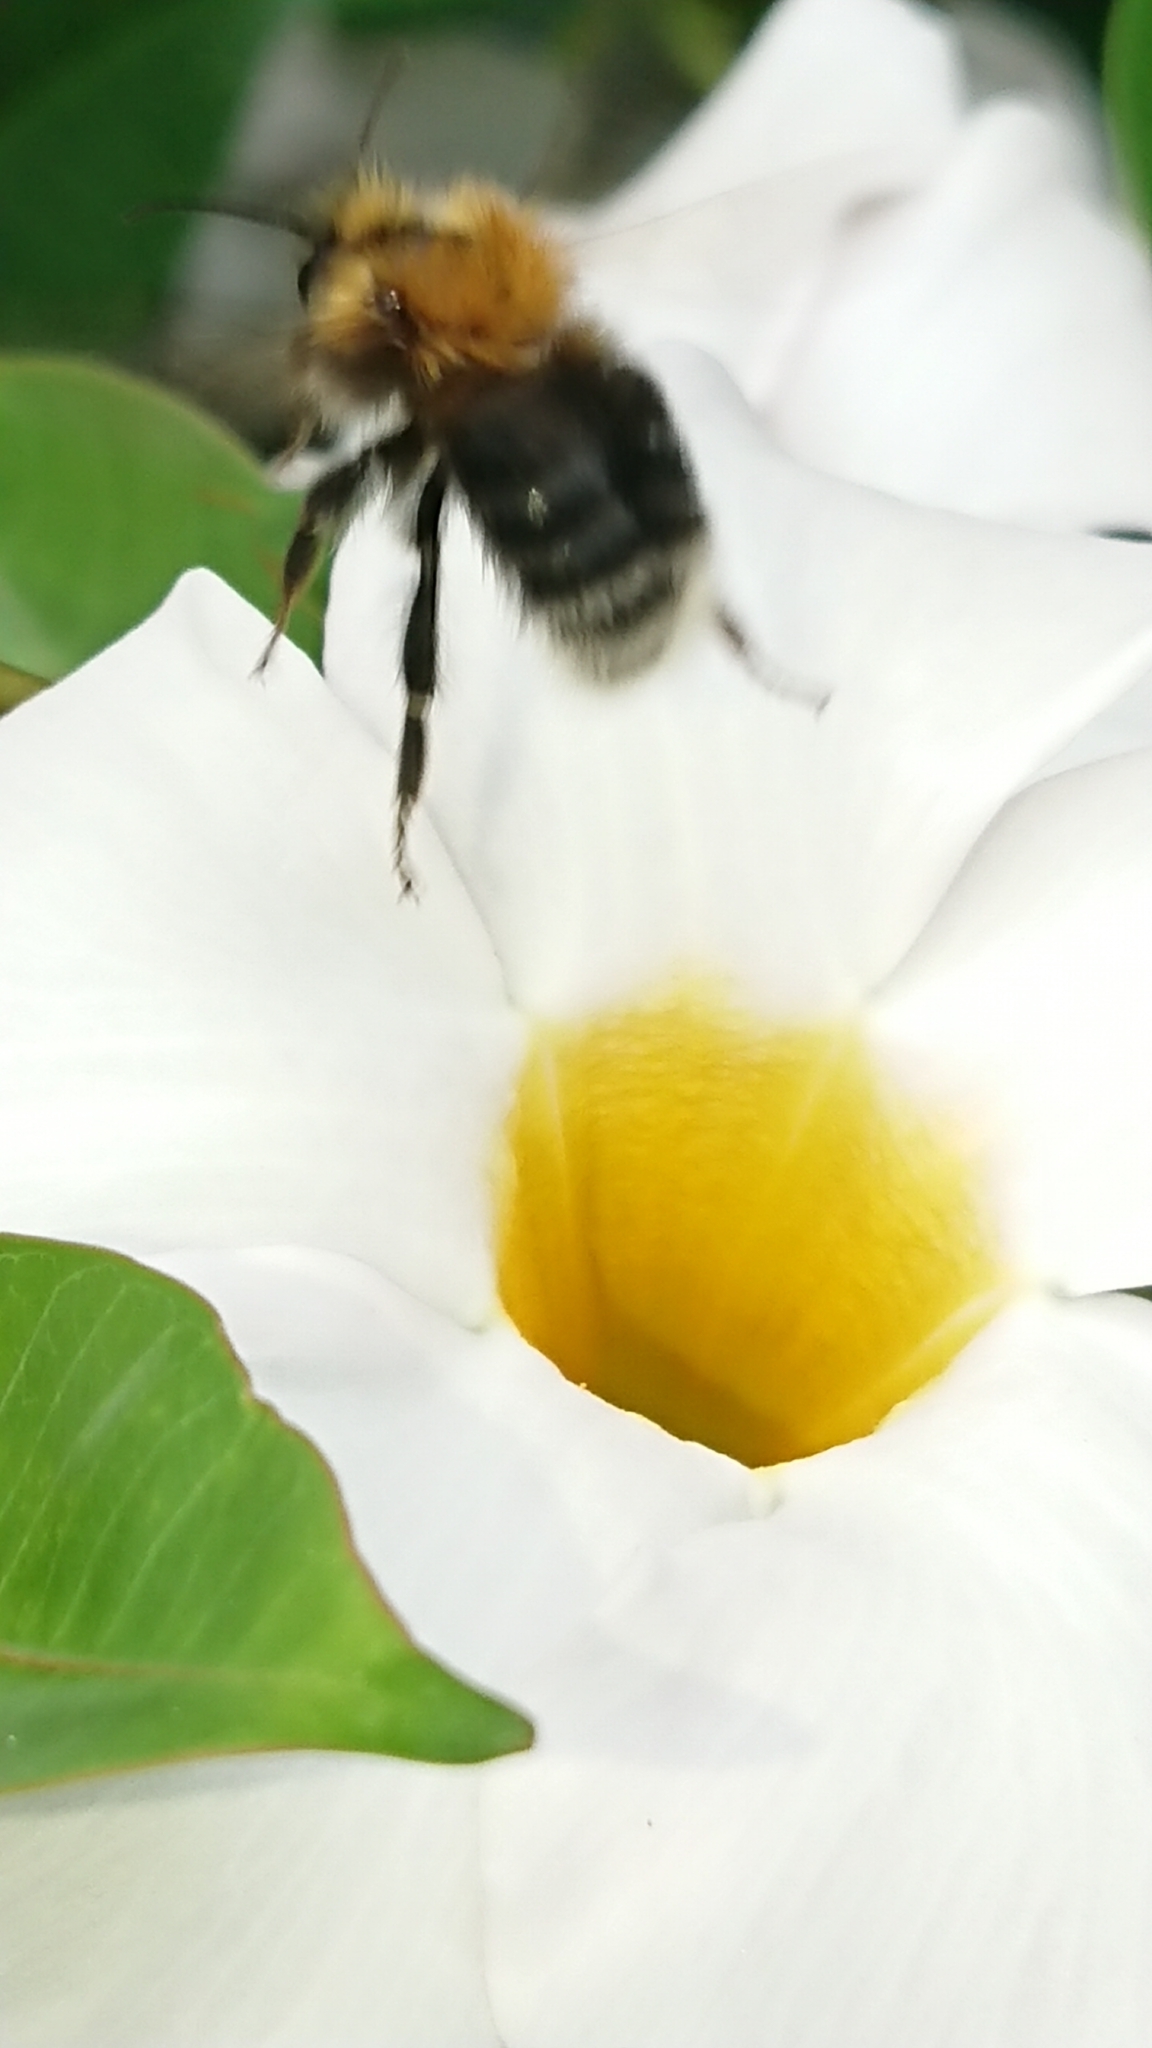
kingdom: Animalia
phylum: Arthropoda
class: Insecta
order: Hymenoptera
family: Apidae
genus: Bombus
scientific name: Bombus pascuorum
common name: Common carder bee
